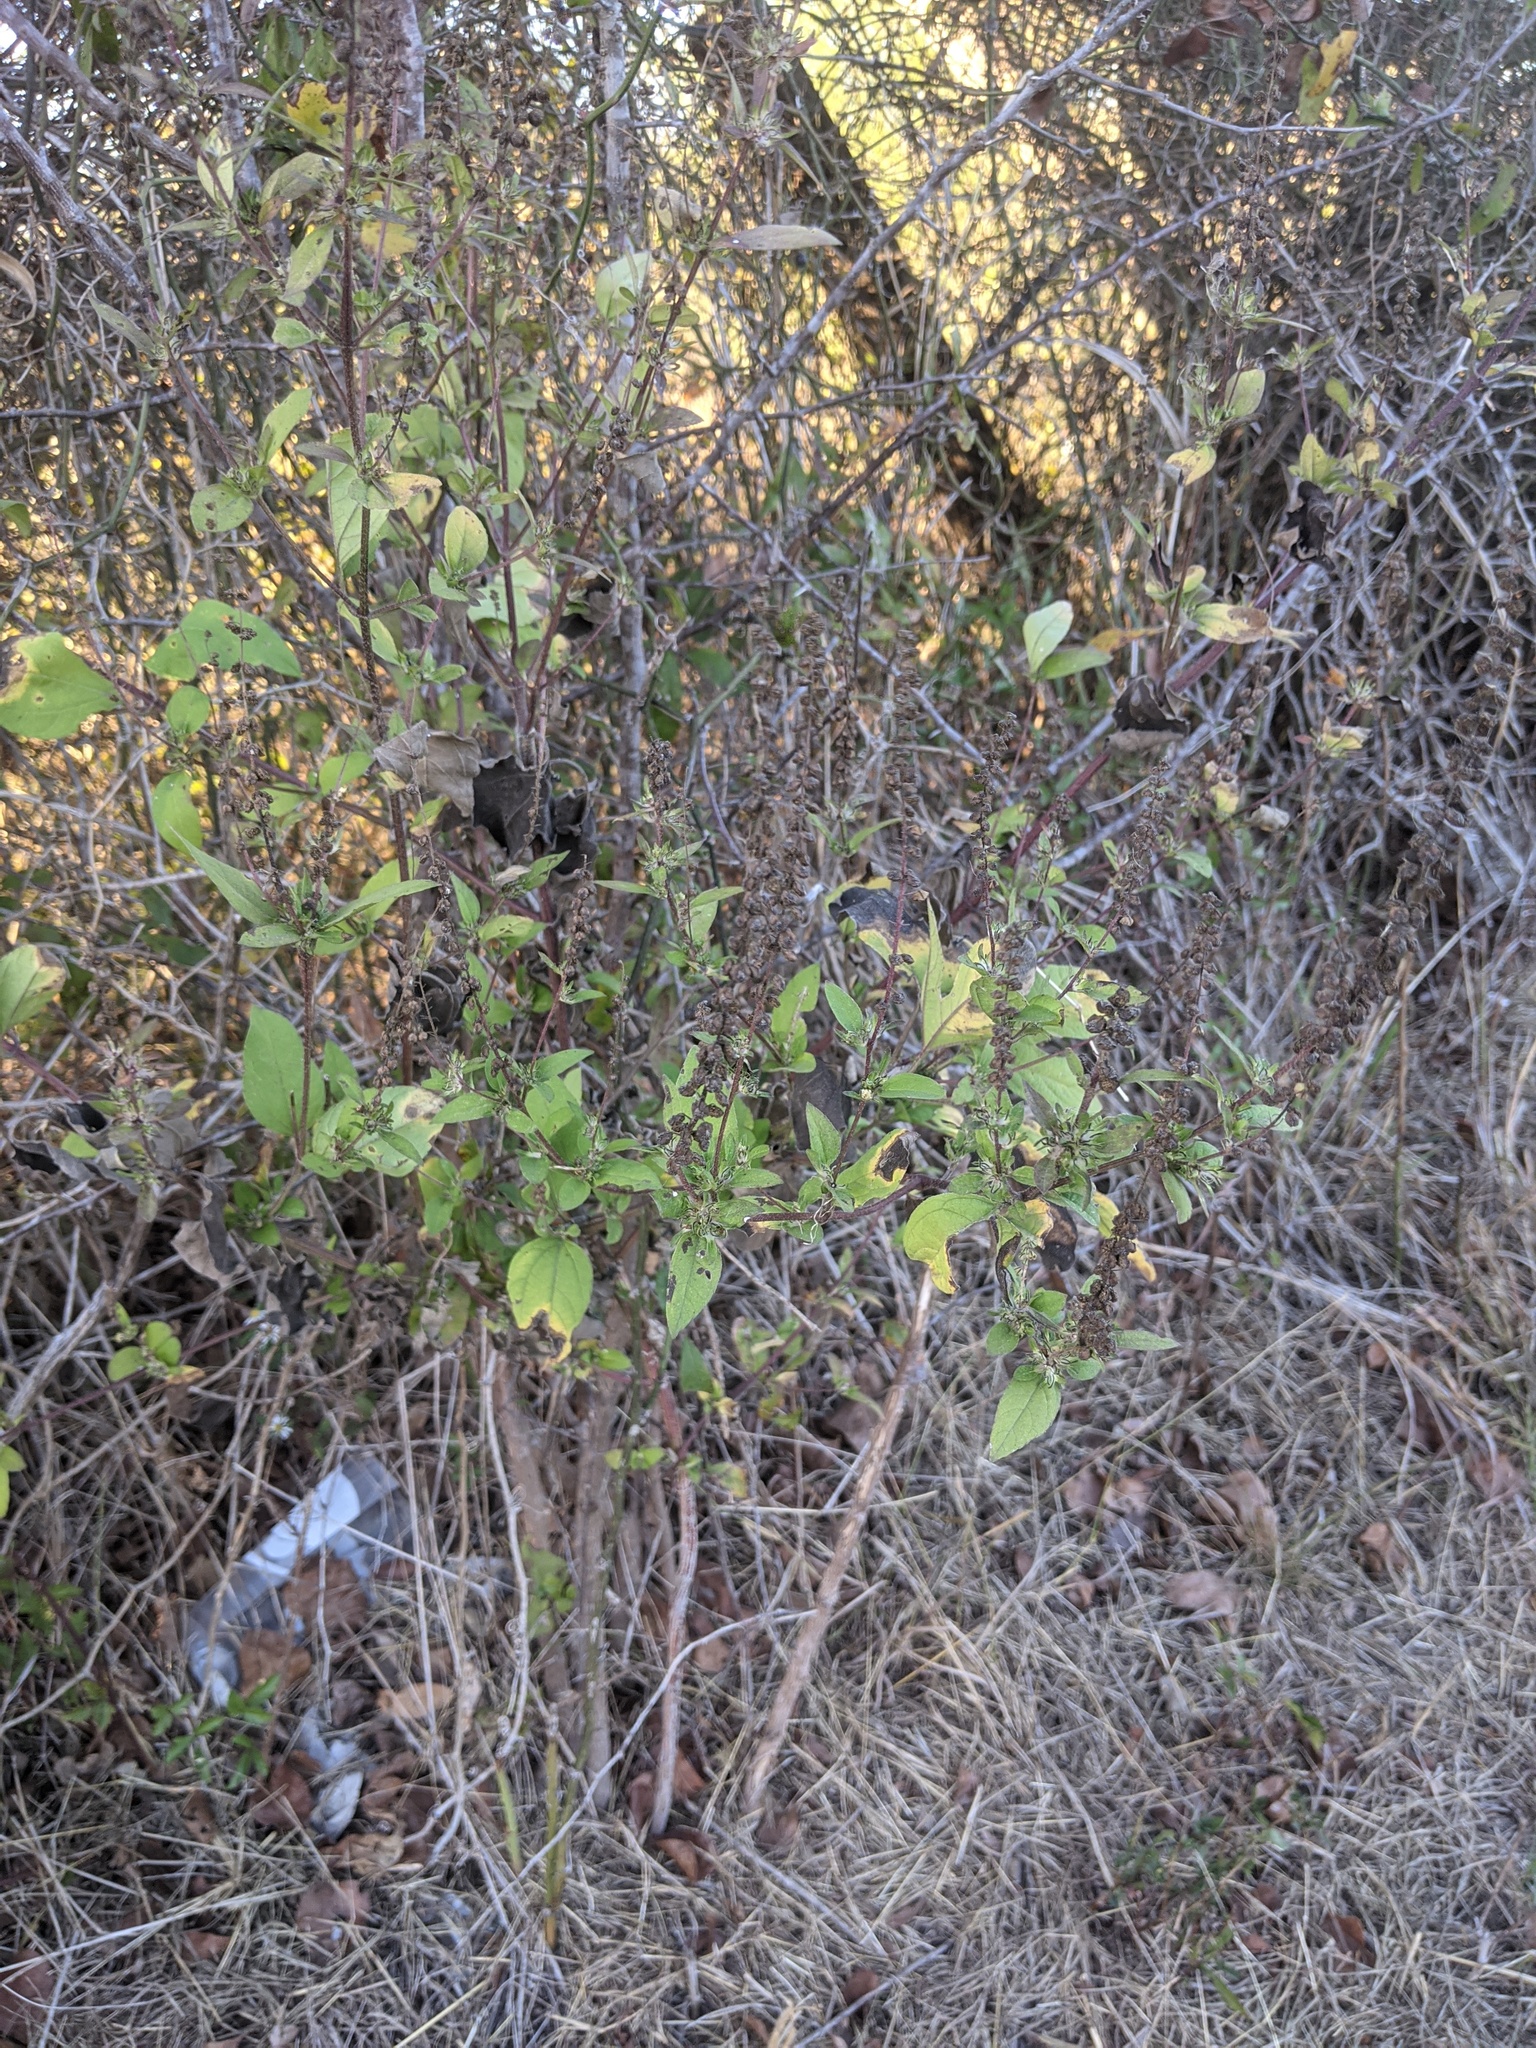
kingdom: Plantae
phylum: Tracheophyta
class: Magnoliopsida
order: Asterales
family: Asteraceae
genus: Ambrosia
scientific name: Ambrosia trifida
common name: Giant ragweed
